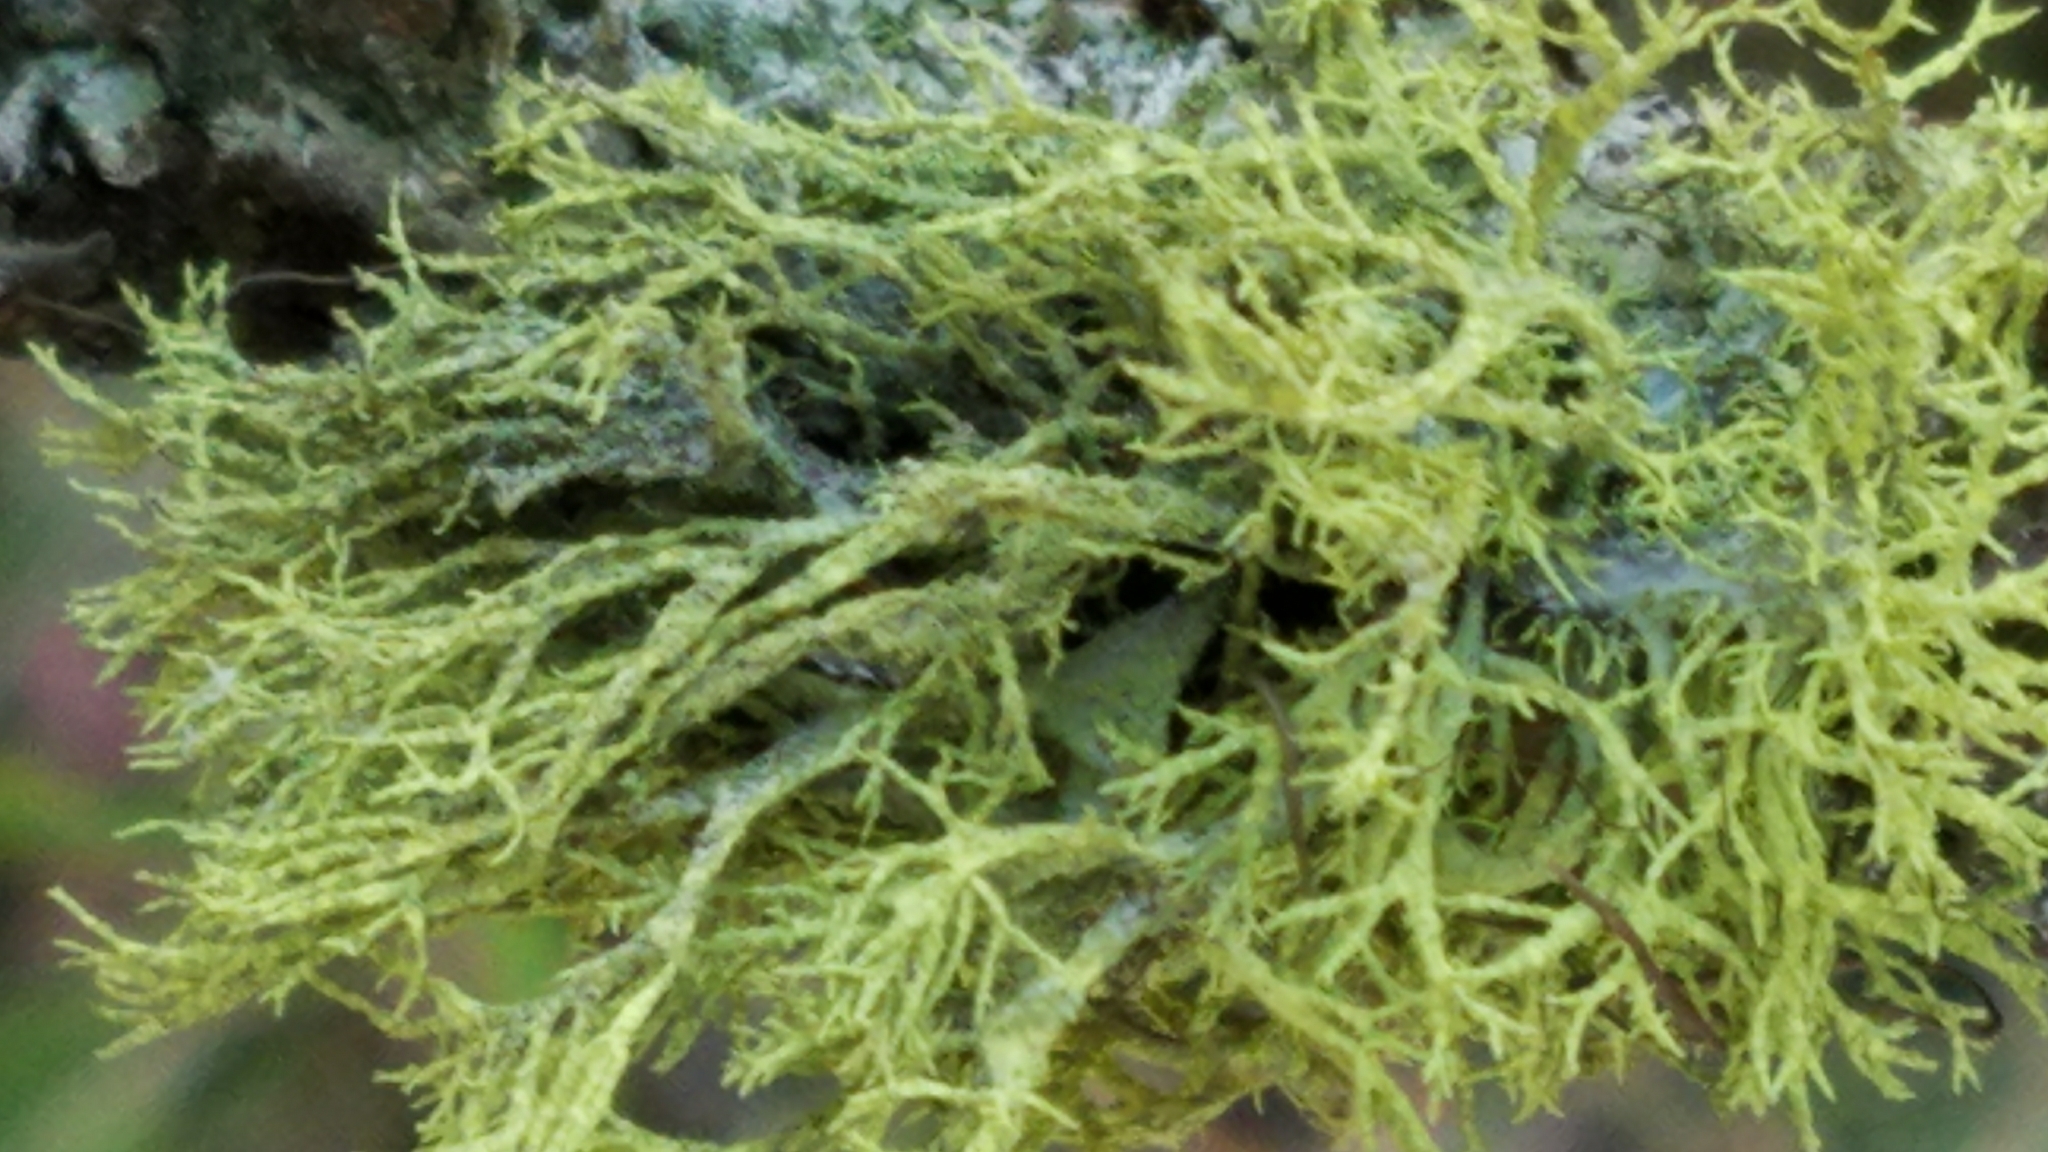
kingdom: Fungi
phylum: Ascomycota
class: Lecanoromycetes
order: Lecanorales
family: Parmeliaceae
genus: Letharia
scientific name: Letharia vulpina
